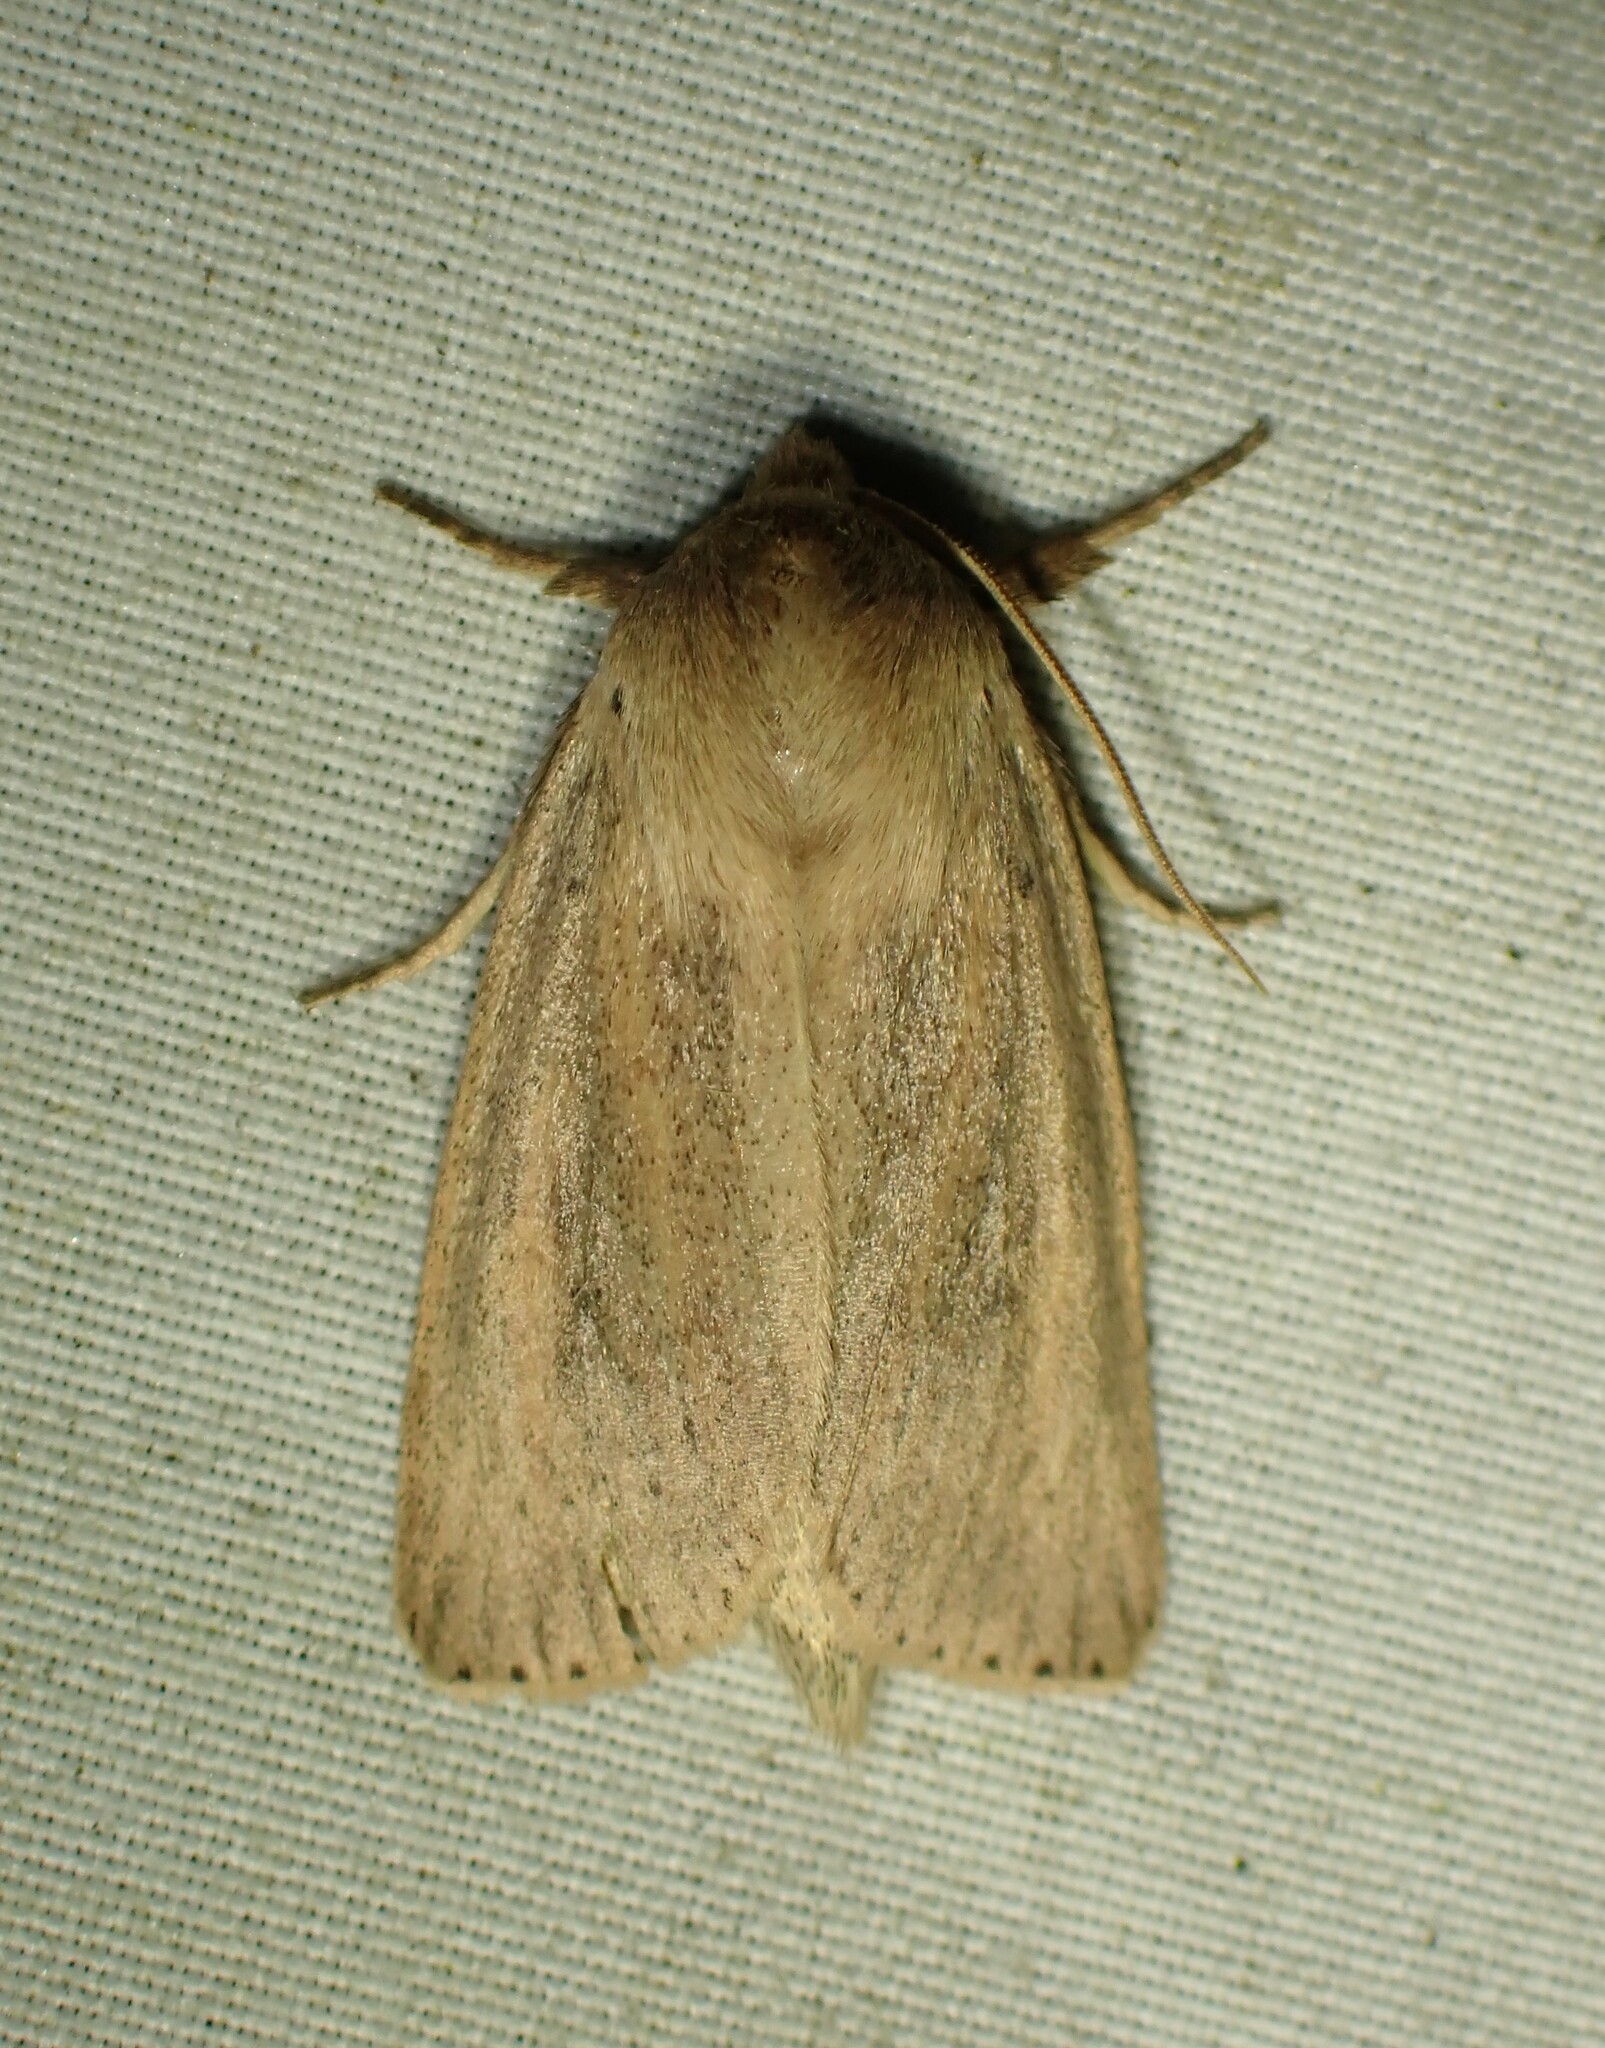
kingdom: Animalia
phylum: Arthropoda
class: Insecta
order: Lepidoptera
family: Noctuidae
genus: Globia
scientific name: Globia oblonga
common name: Oblong sedge borer moth
